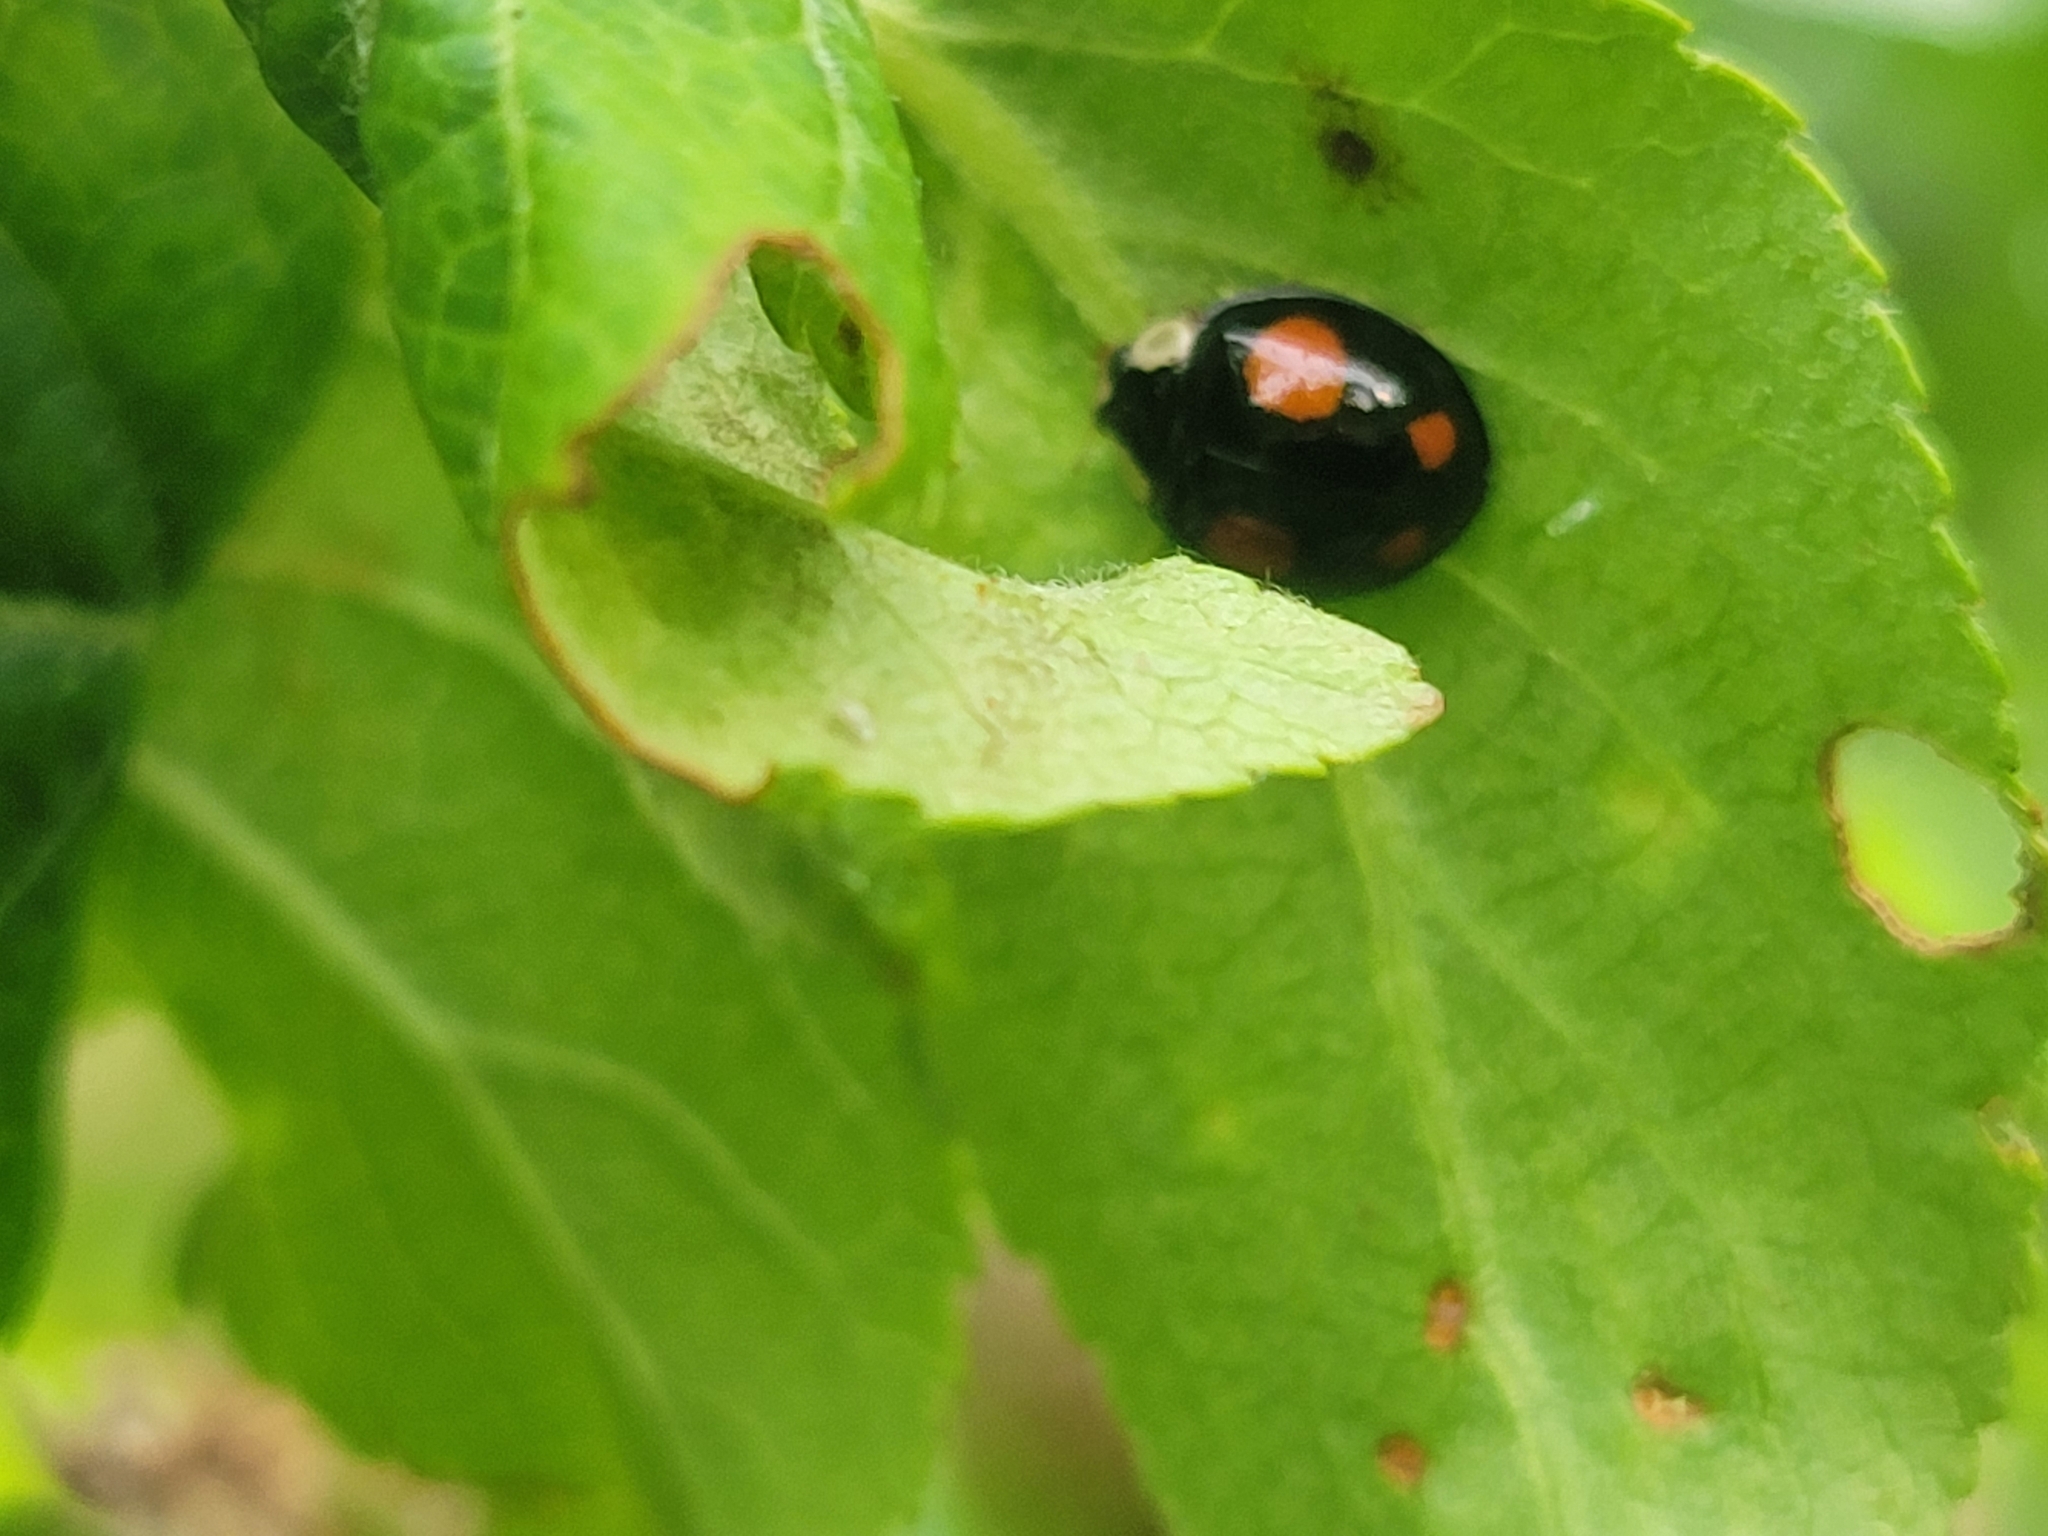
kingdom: Animalia
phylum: Arthropoda
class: Insecta
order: Coleoptera
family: Coccinellidae
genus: Harmonia
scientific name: Harmonia axyridis
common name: Harlequin ladybird
